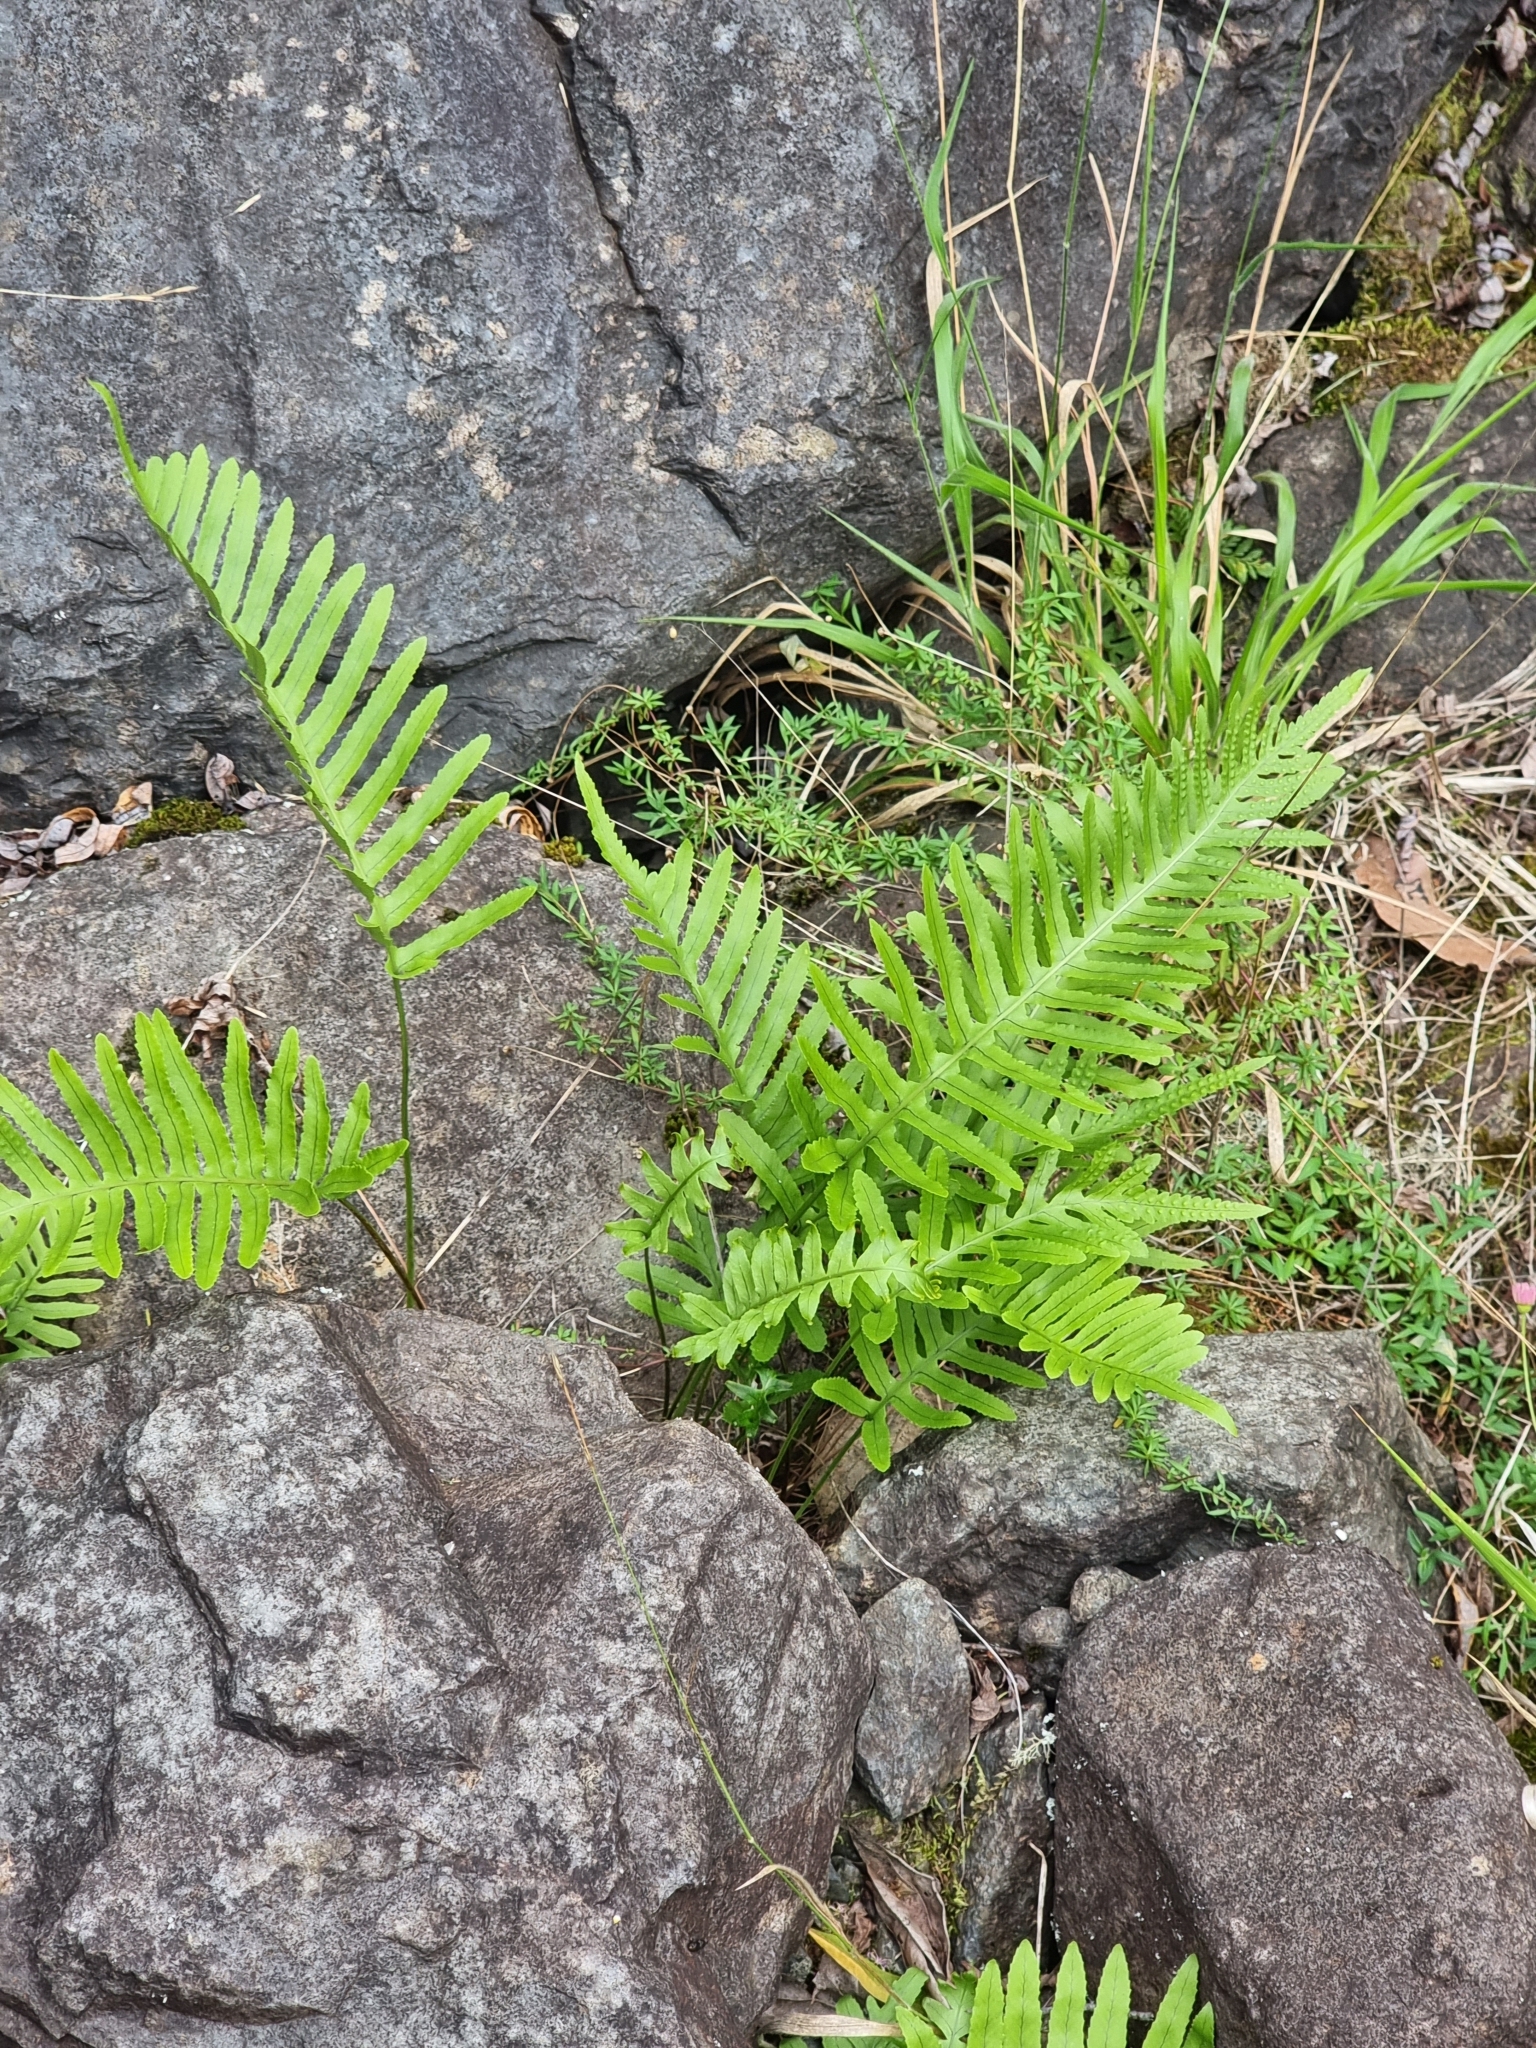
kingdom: Plantae
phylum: Tracheophyta
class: Polypodiopsida
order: Polypodiales
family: Polypodiaceae
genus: Polypodium
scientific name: Polypodium macaronesicum
